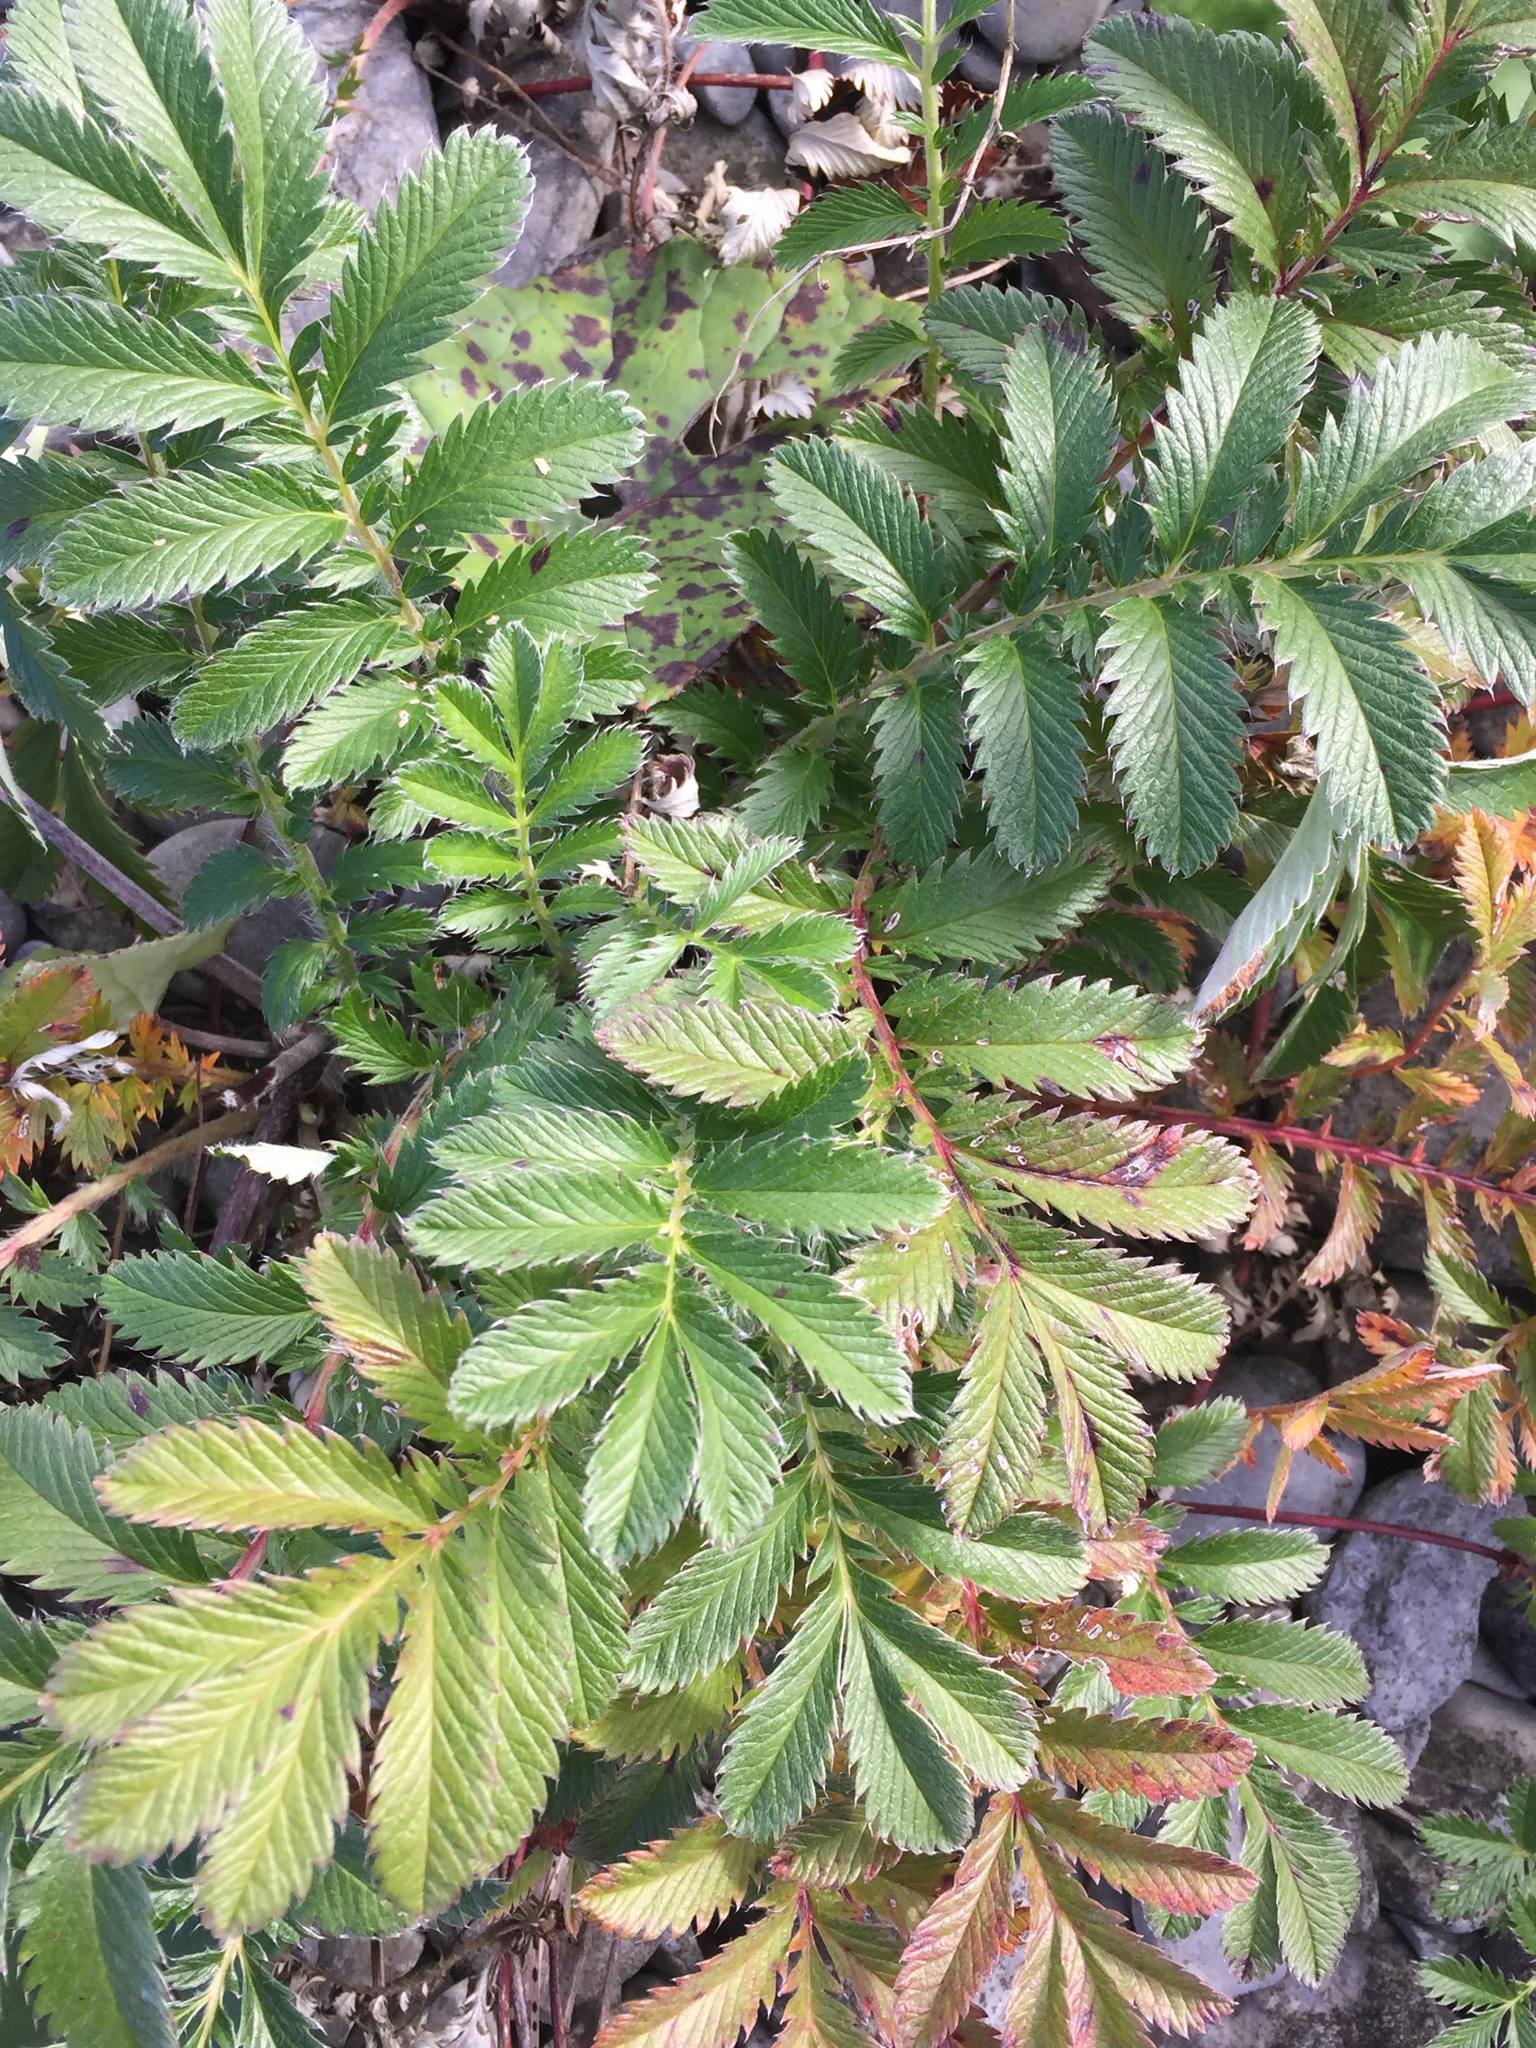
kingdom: Plantae
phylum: Tracheophyta
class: Magnoliopsida
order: Rosales
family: Rosaceae
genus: Argentina
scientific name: Argentina anserina
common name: Common silverweed
